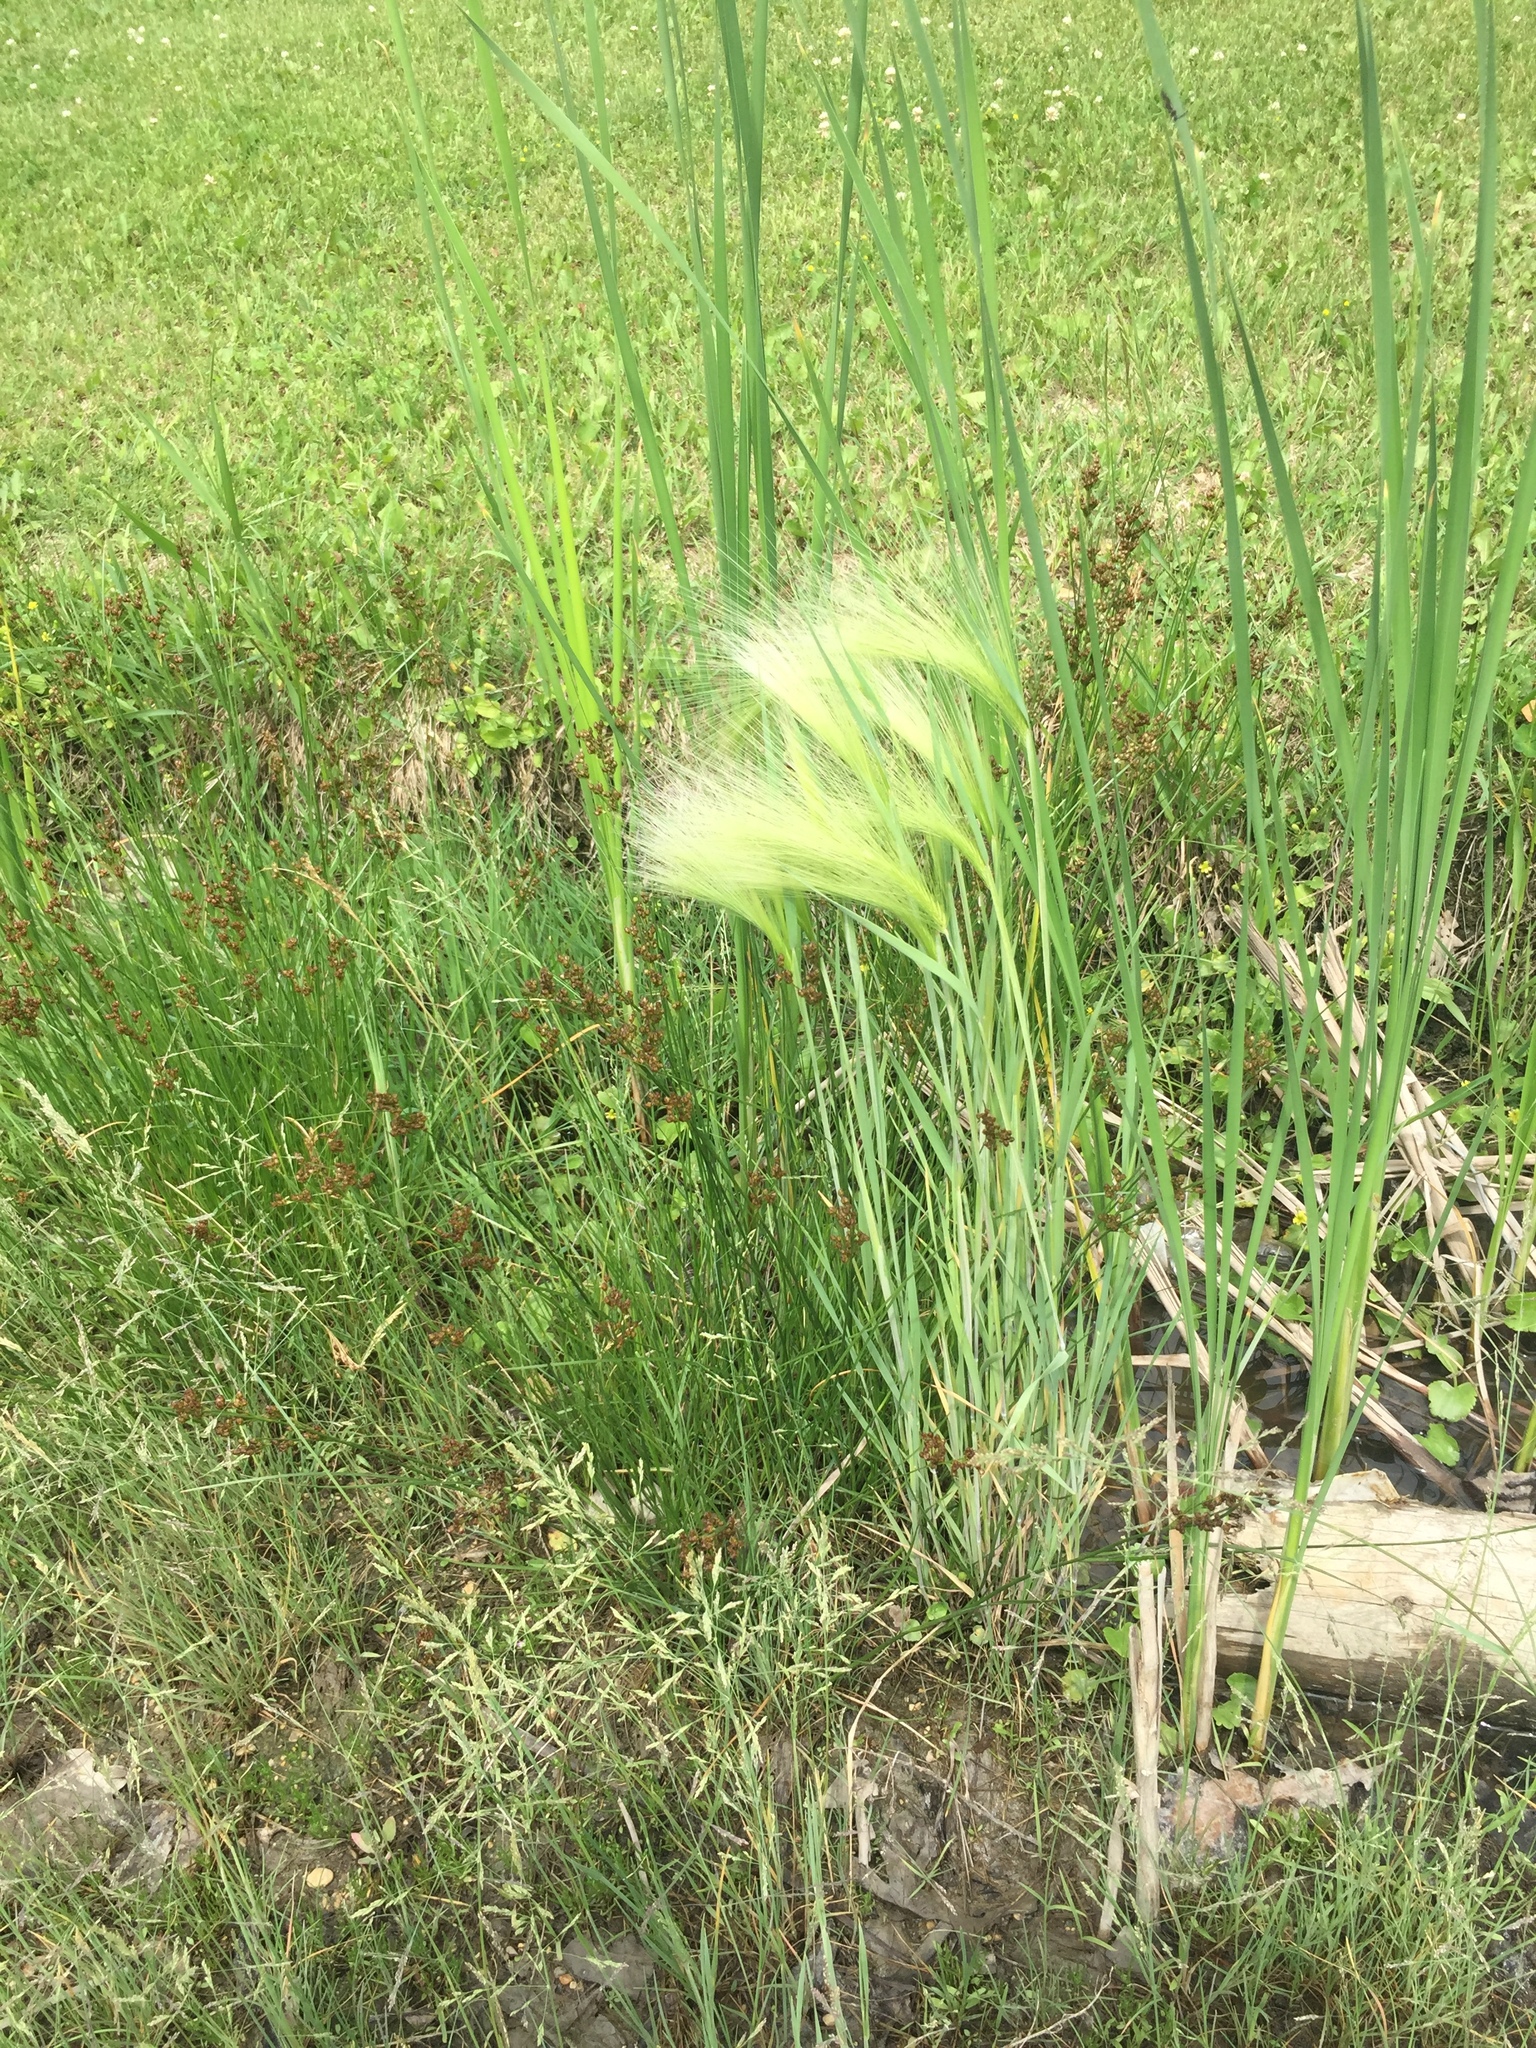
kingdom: Plantae
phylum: Tracheophyta
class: Liliopsida
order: Poales
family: Poaceae
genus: Hordeum
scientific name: Hordeum jubatum
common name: Foxtail barley
